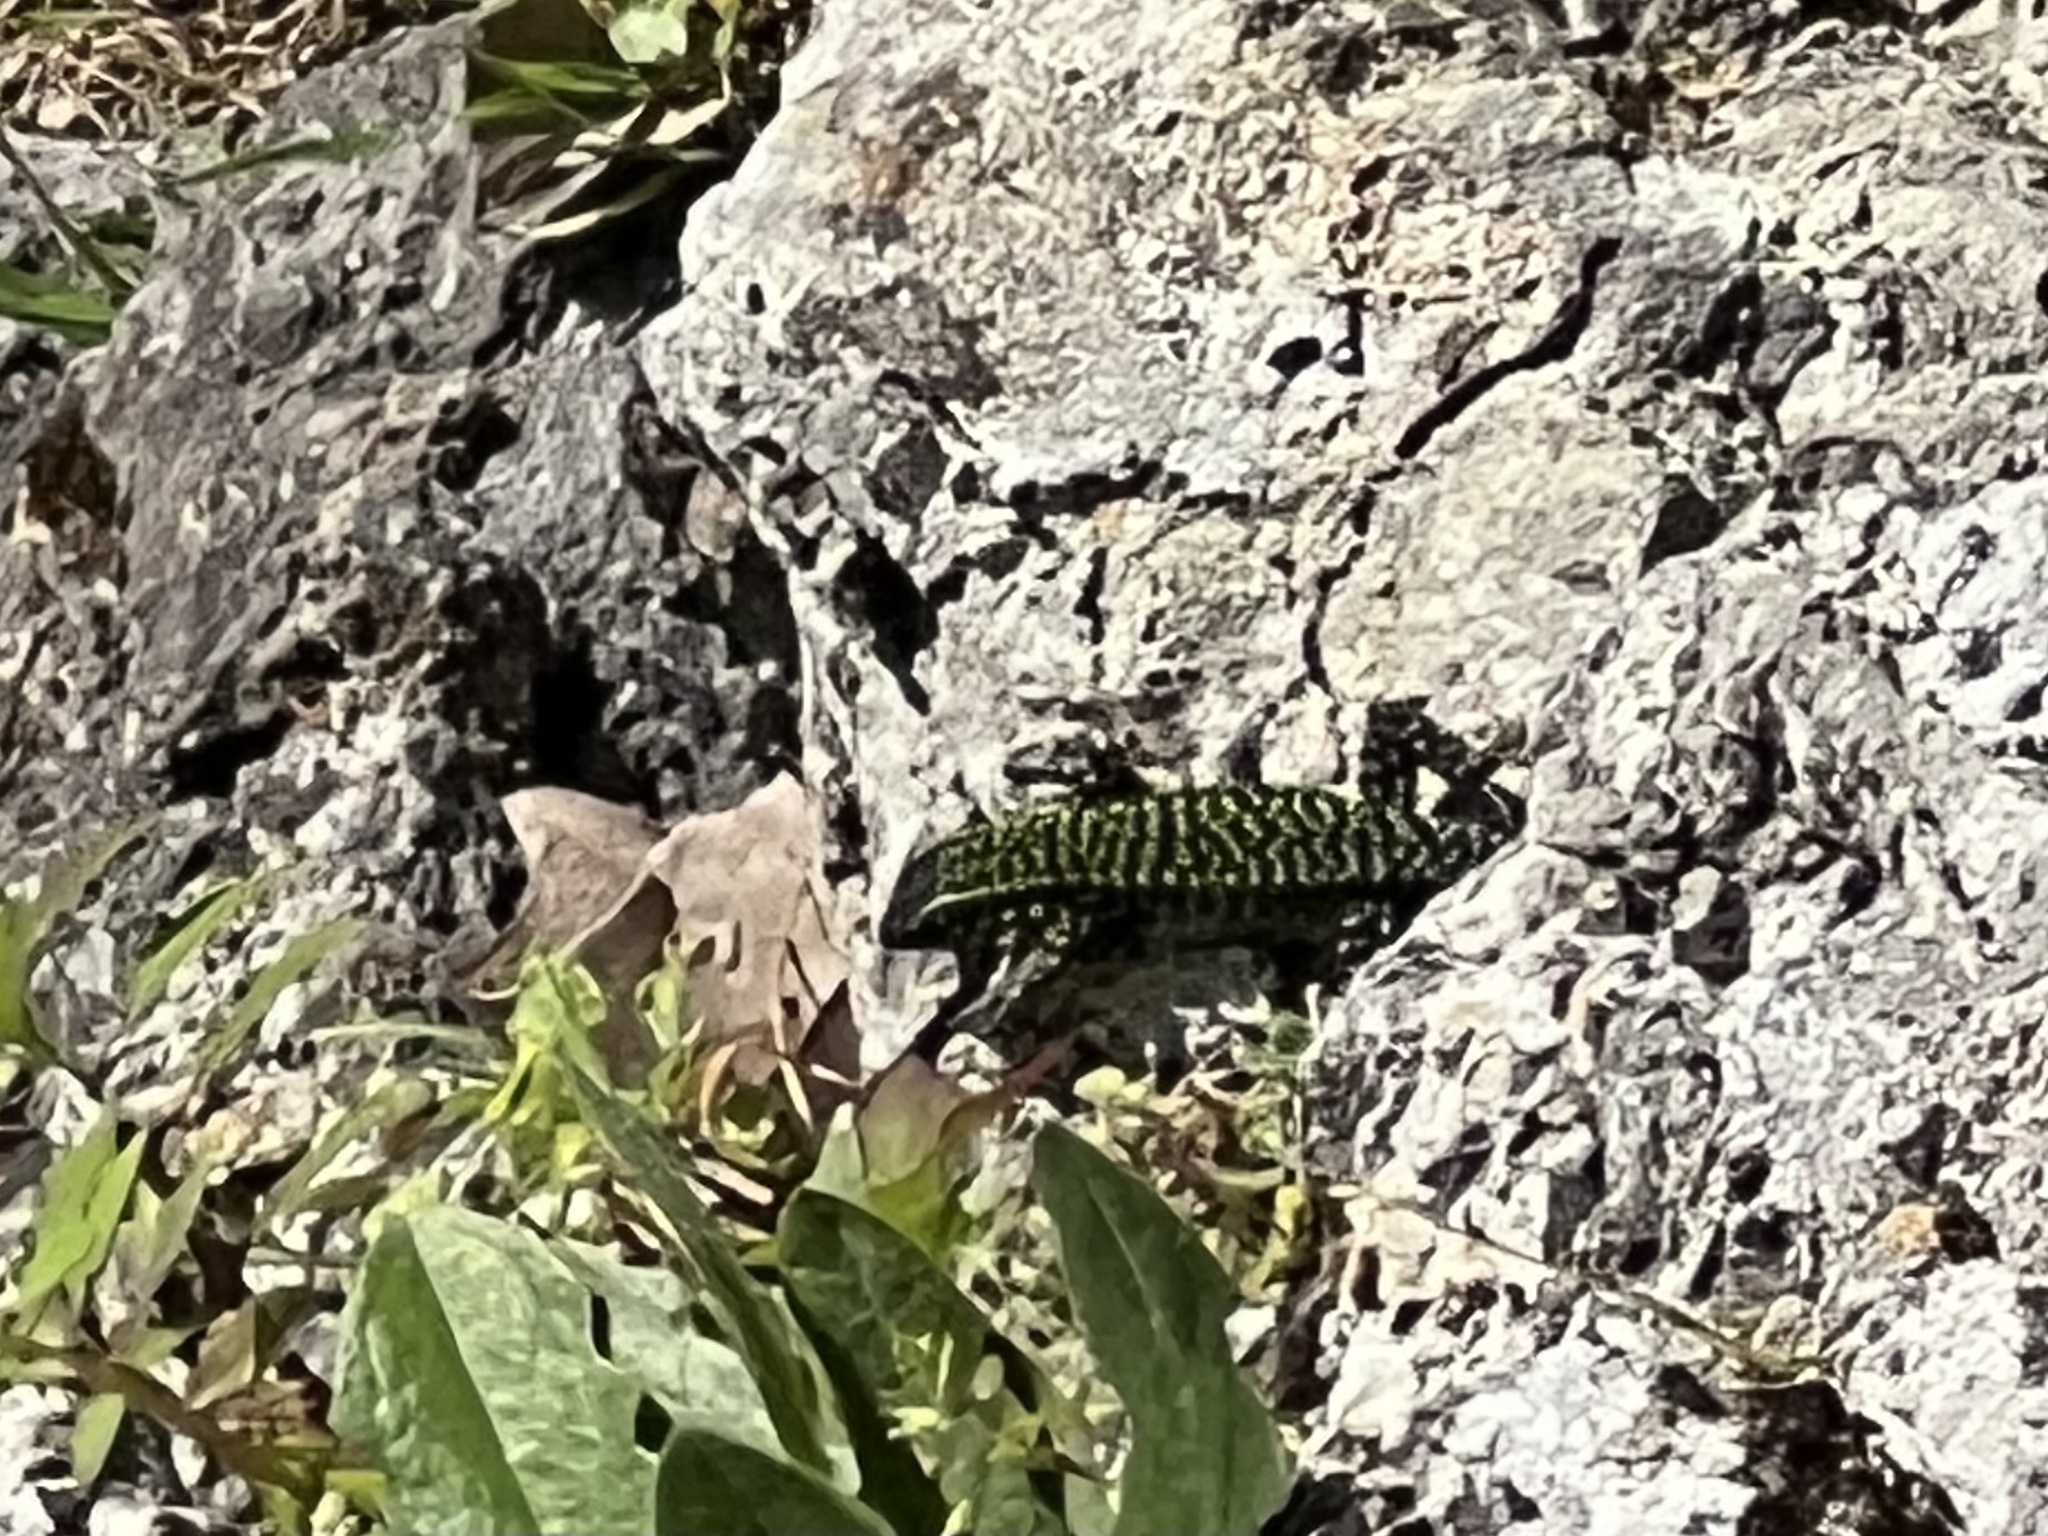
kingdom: Animalia
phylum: Chordata
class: Squamata
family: Lacertidae
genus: Podarcis
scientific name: Podarcis muralis
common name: Common wall lizard
